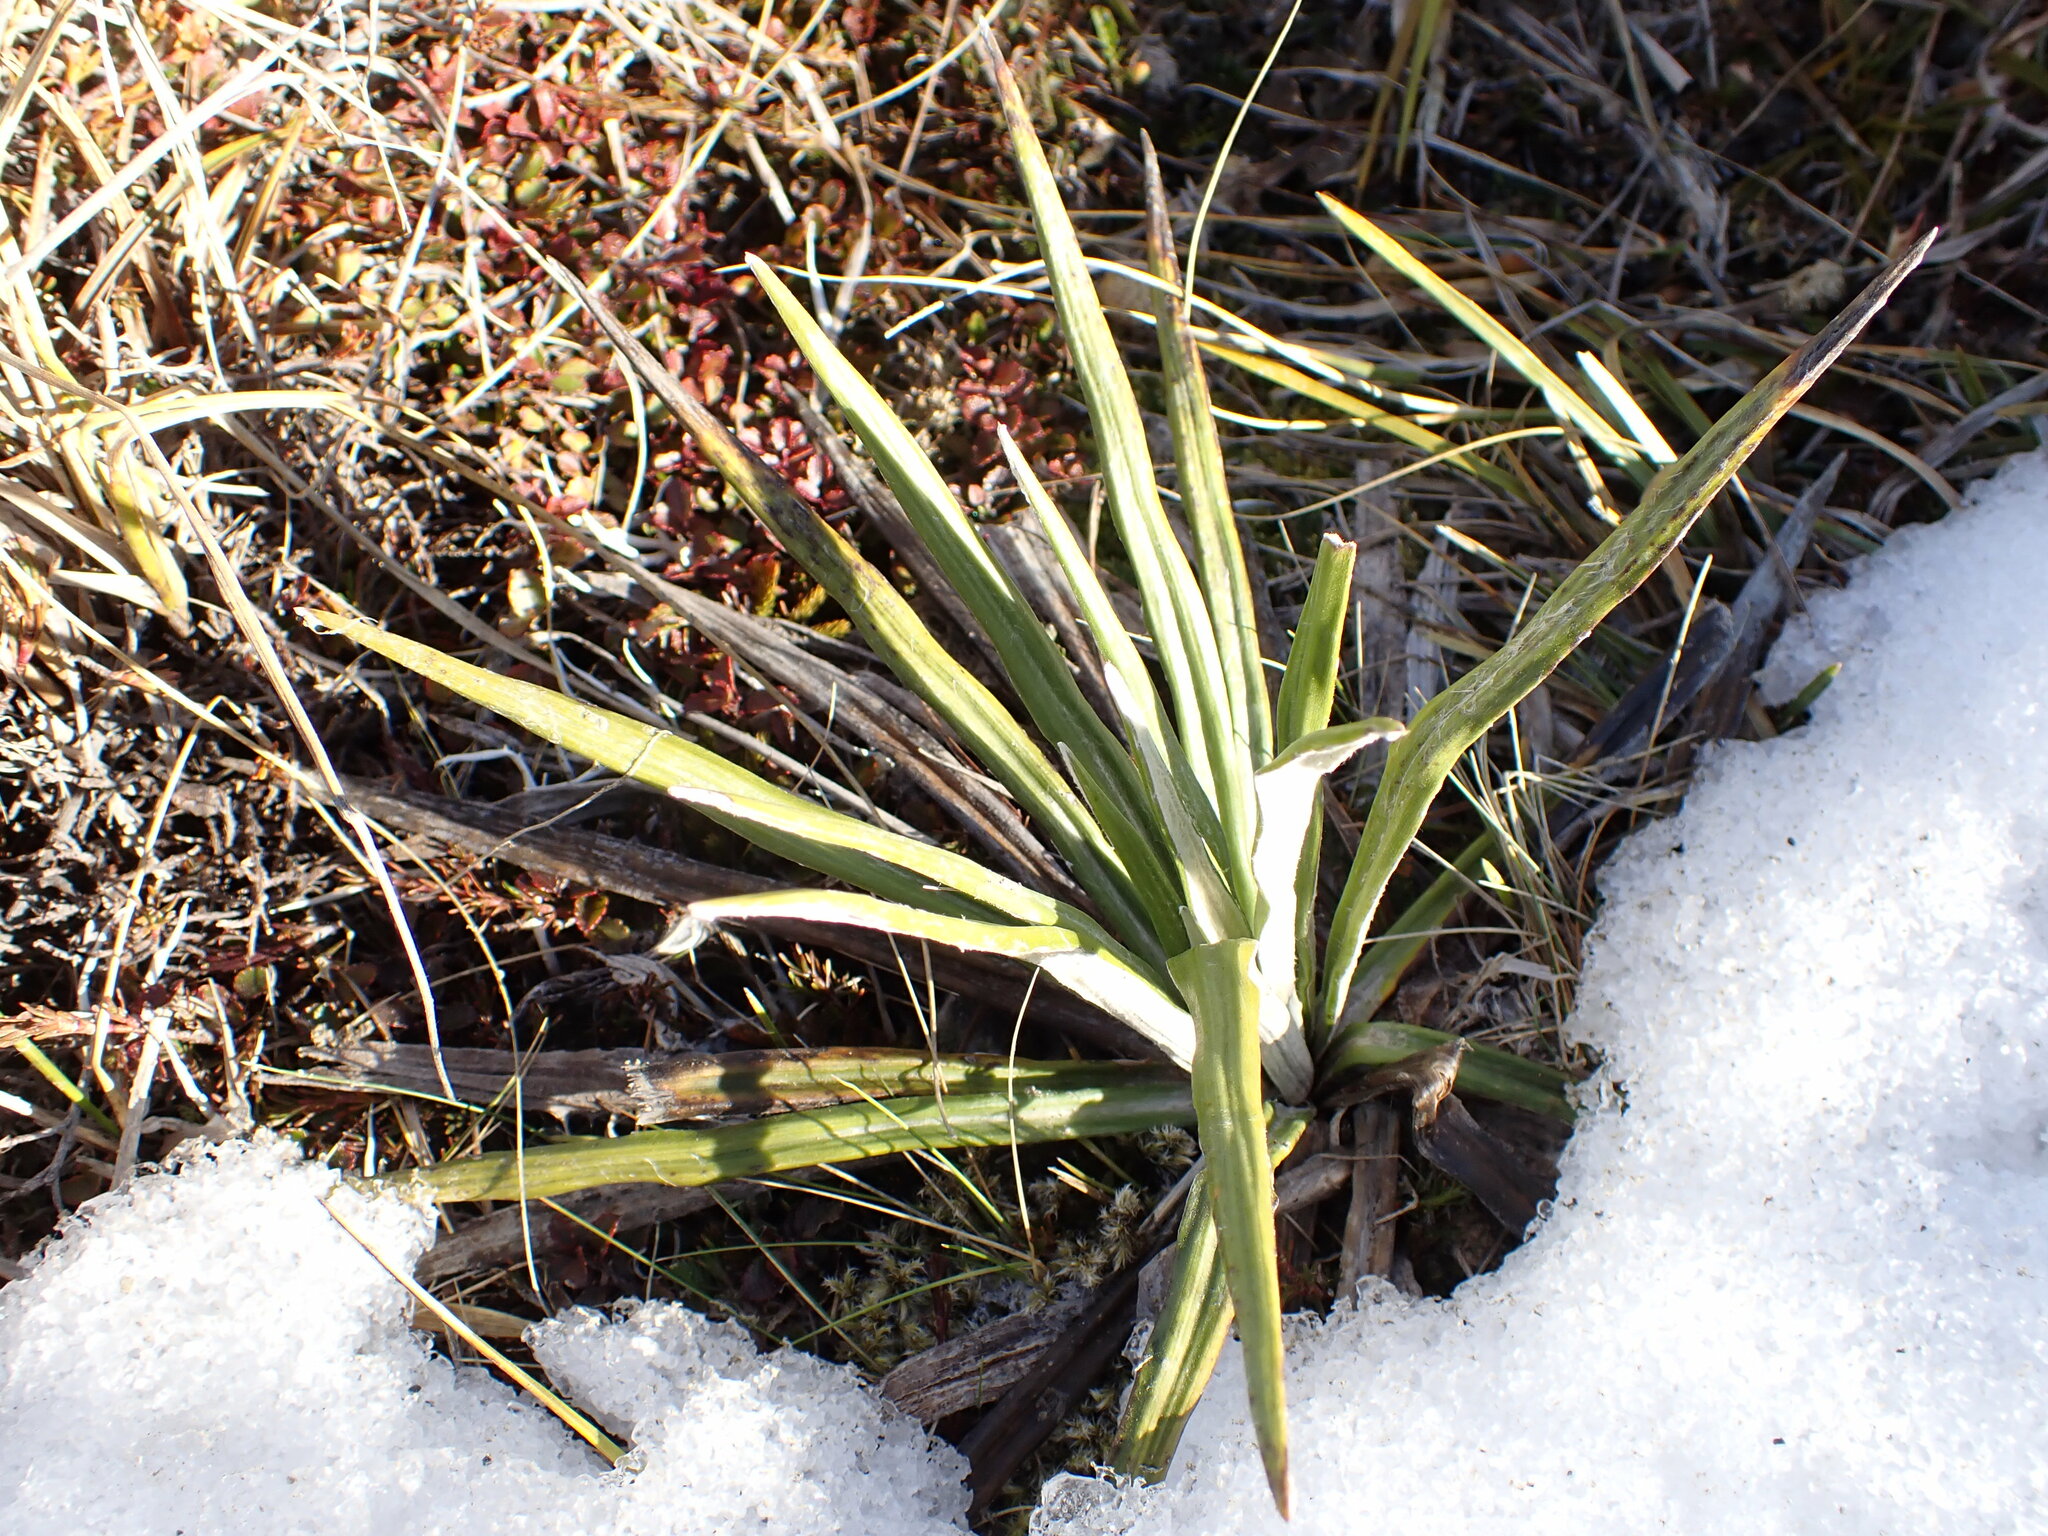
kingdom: Plantae
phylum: Tracheophyta
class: Magnoliopsida
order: Asterales
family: Asteraceae
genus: Celmisia
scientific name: Celmisia pseudolyallii
